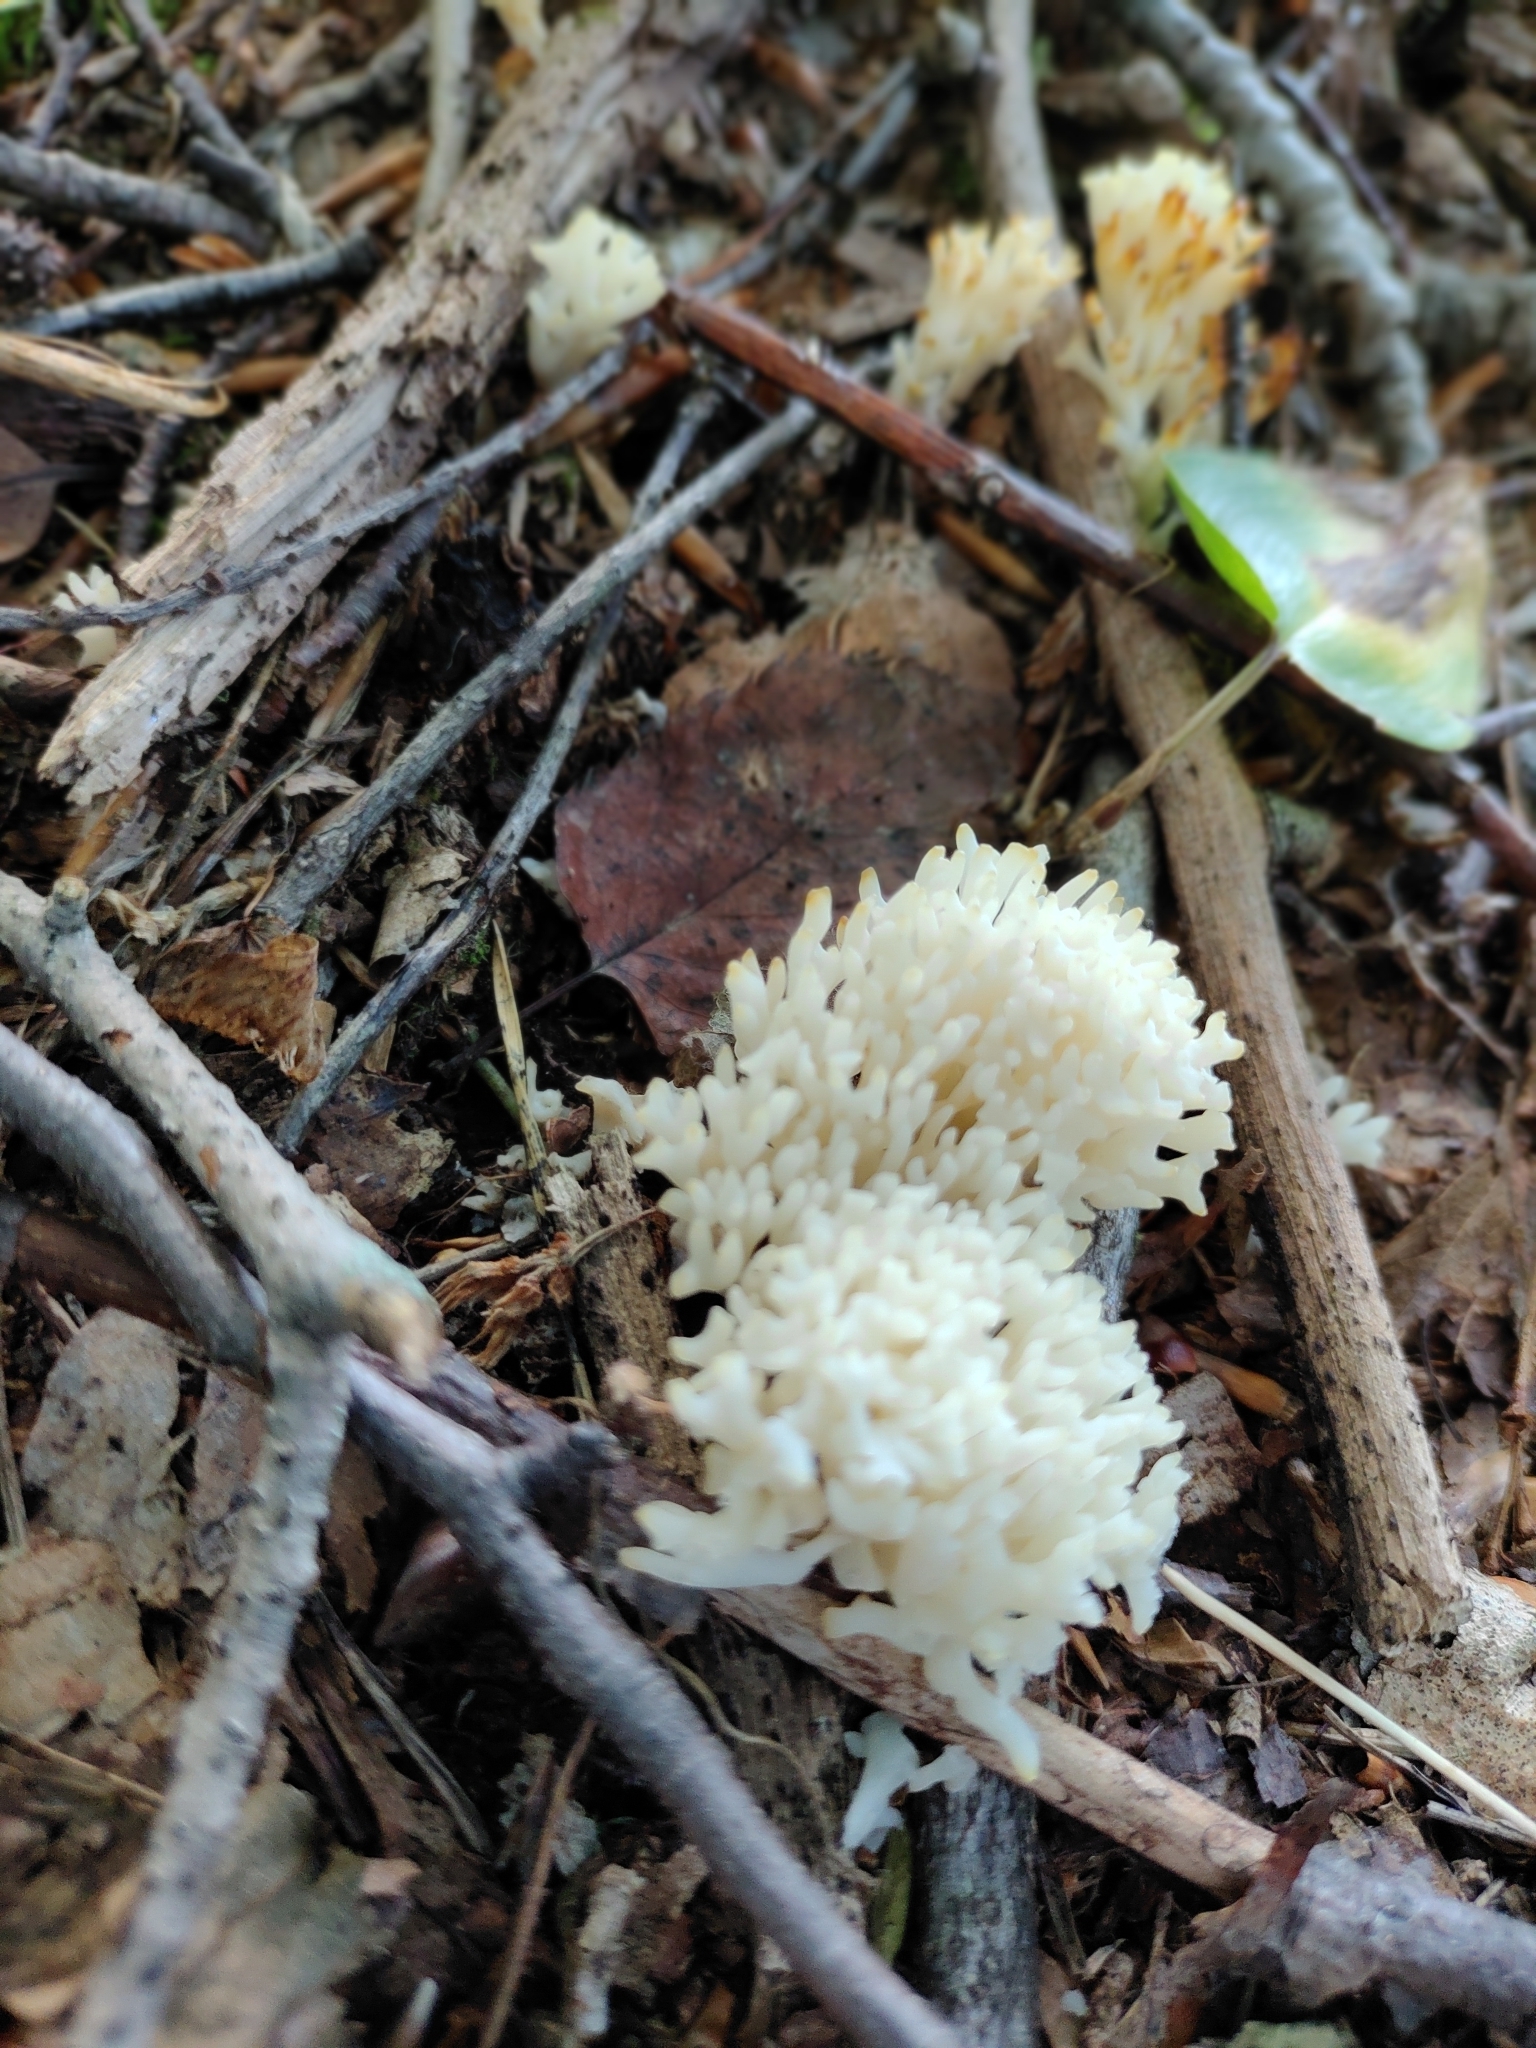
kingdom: Fungi
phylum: Basidiomycota
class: Agaricomycetes
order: Agaricales
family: Clavariaceae
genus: Ramariopsis
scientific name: Ramariopsis kunzei
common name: Ivory coral
